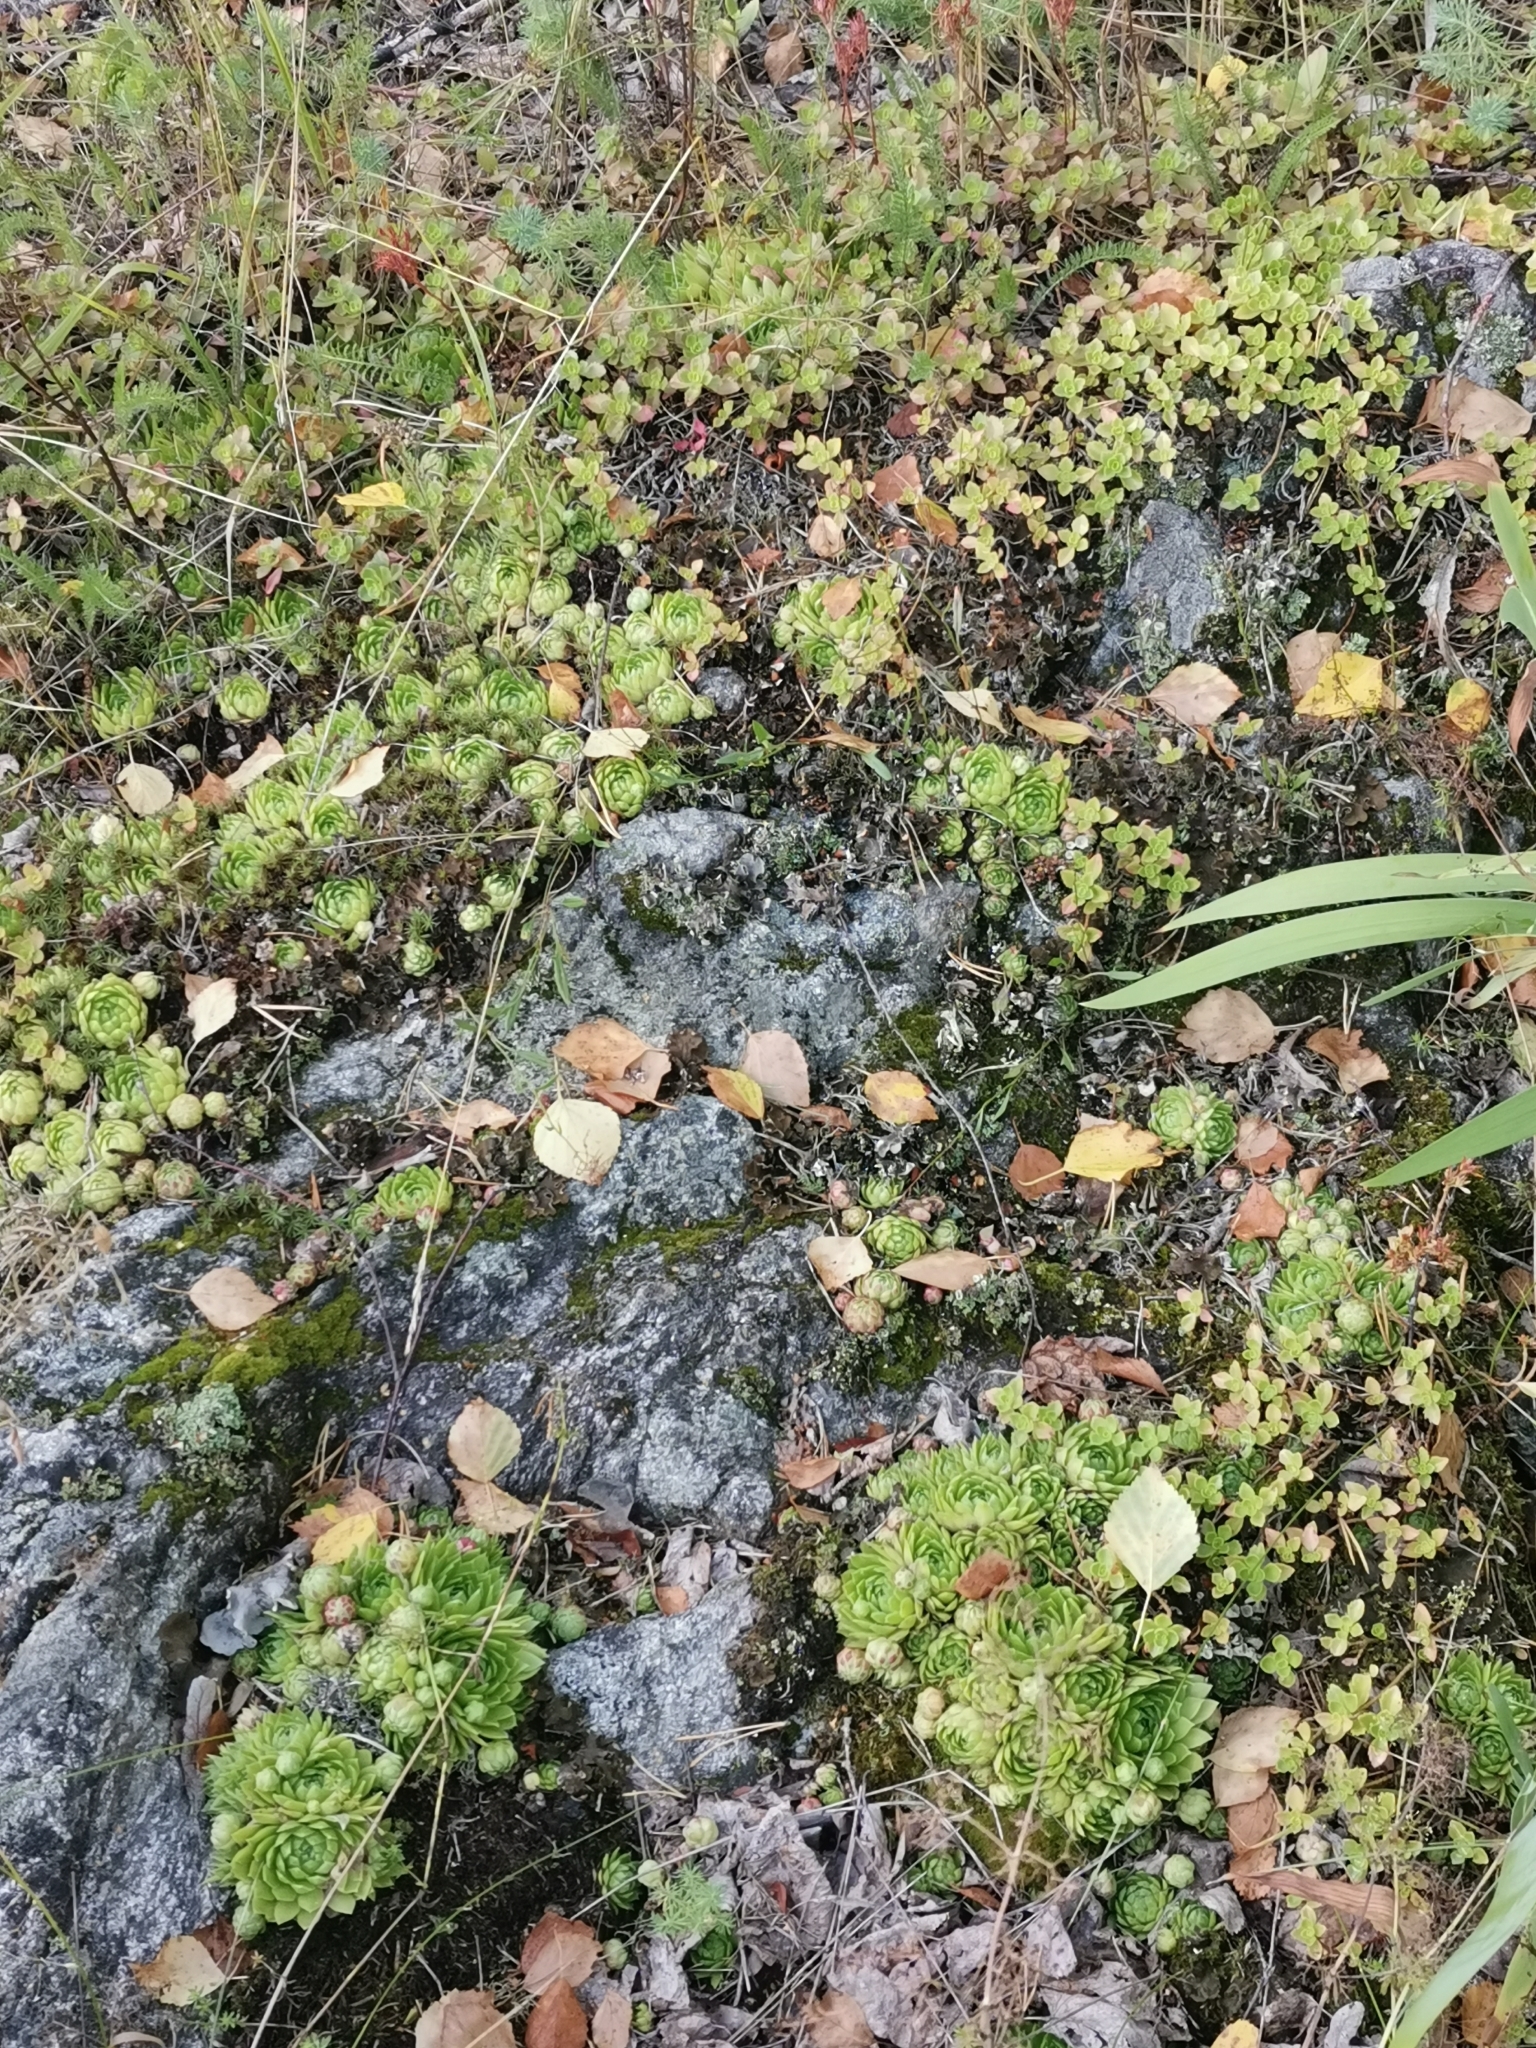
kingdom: Plantae
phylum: Tracheophyta
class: Magnoliopsida
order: Saxifragales
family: Crassulaceae
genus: Sempervivum
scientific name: Sempervivum globiferum
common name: Rolling hen-and-chicks
